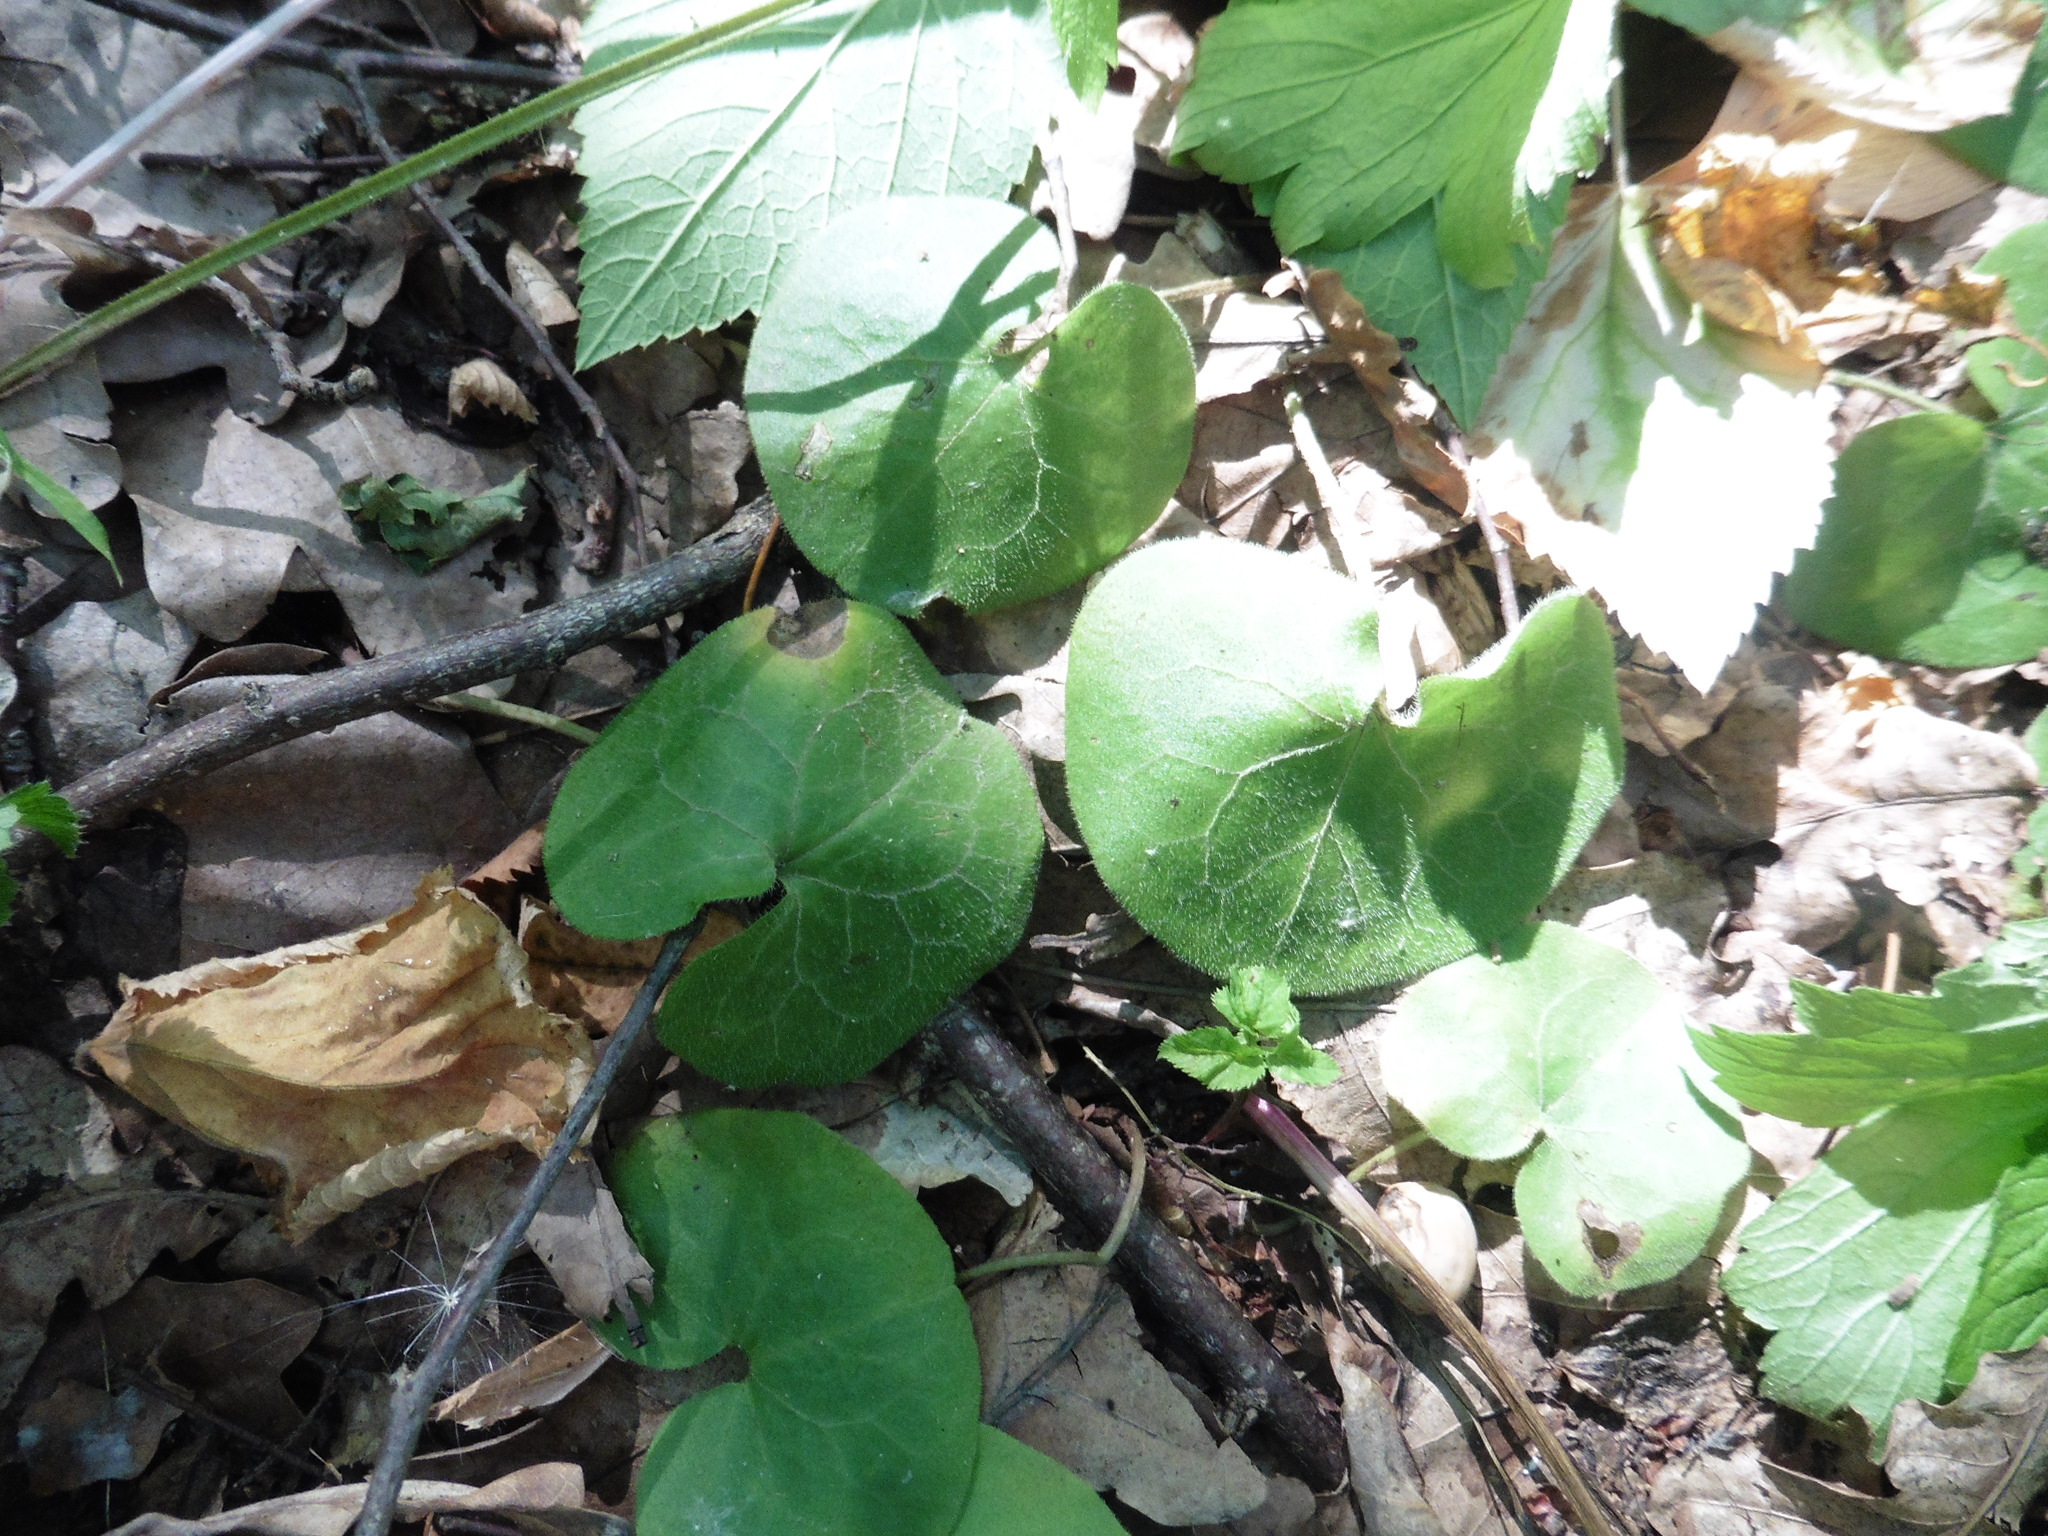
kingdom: Plantae
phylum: Tracheophyta
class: Magnoliopsida
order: Piperales
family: Aristolochiaceae
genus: Asarum
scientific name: Asarum europaeum
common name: Asarabacca
